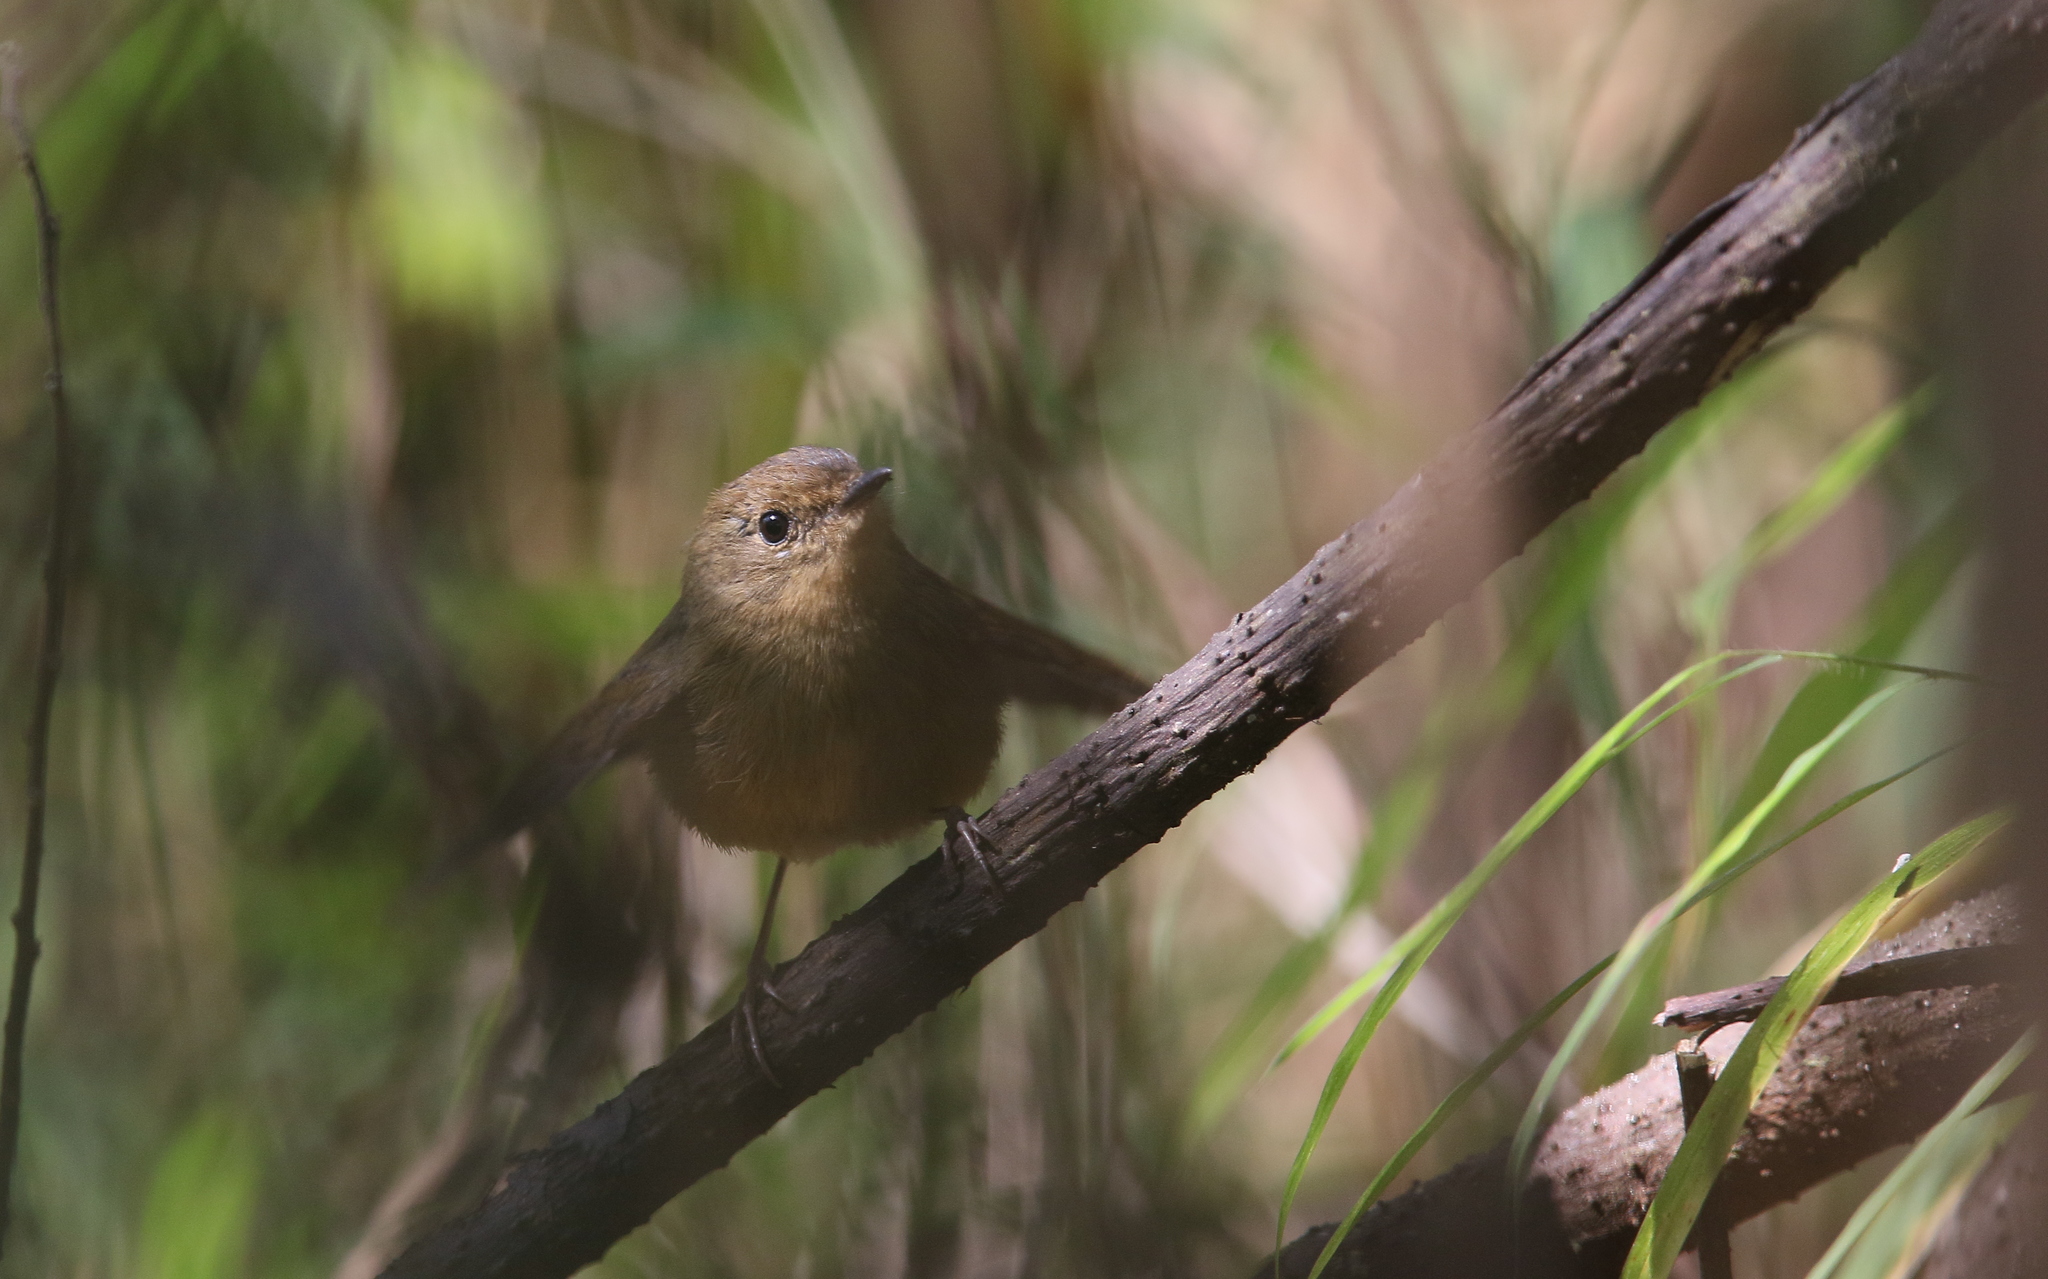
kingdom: Animalia
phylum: Chordata
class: Aves
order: Passeriformes
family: Muscicapidae
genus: Ficedula
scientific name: Ficedula tricolor
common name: Slaty-blue flycatcher
